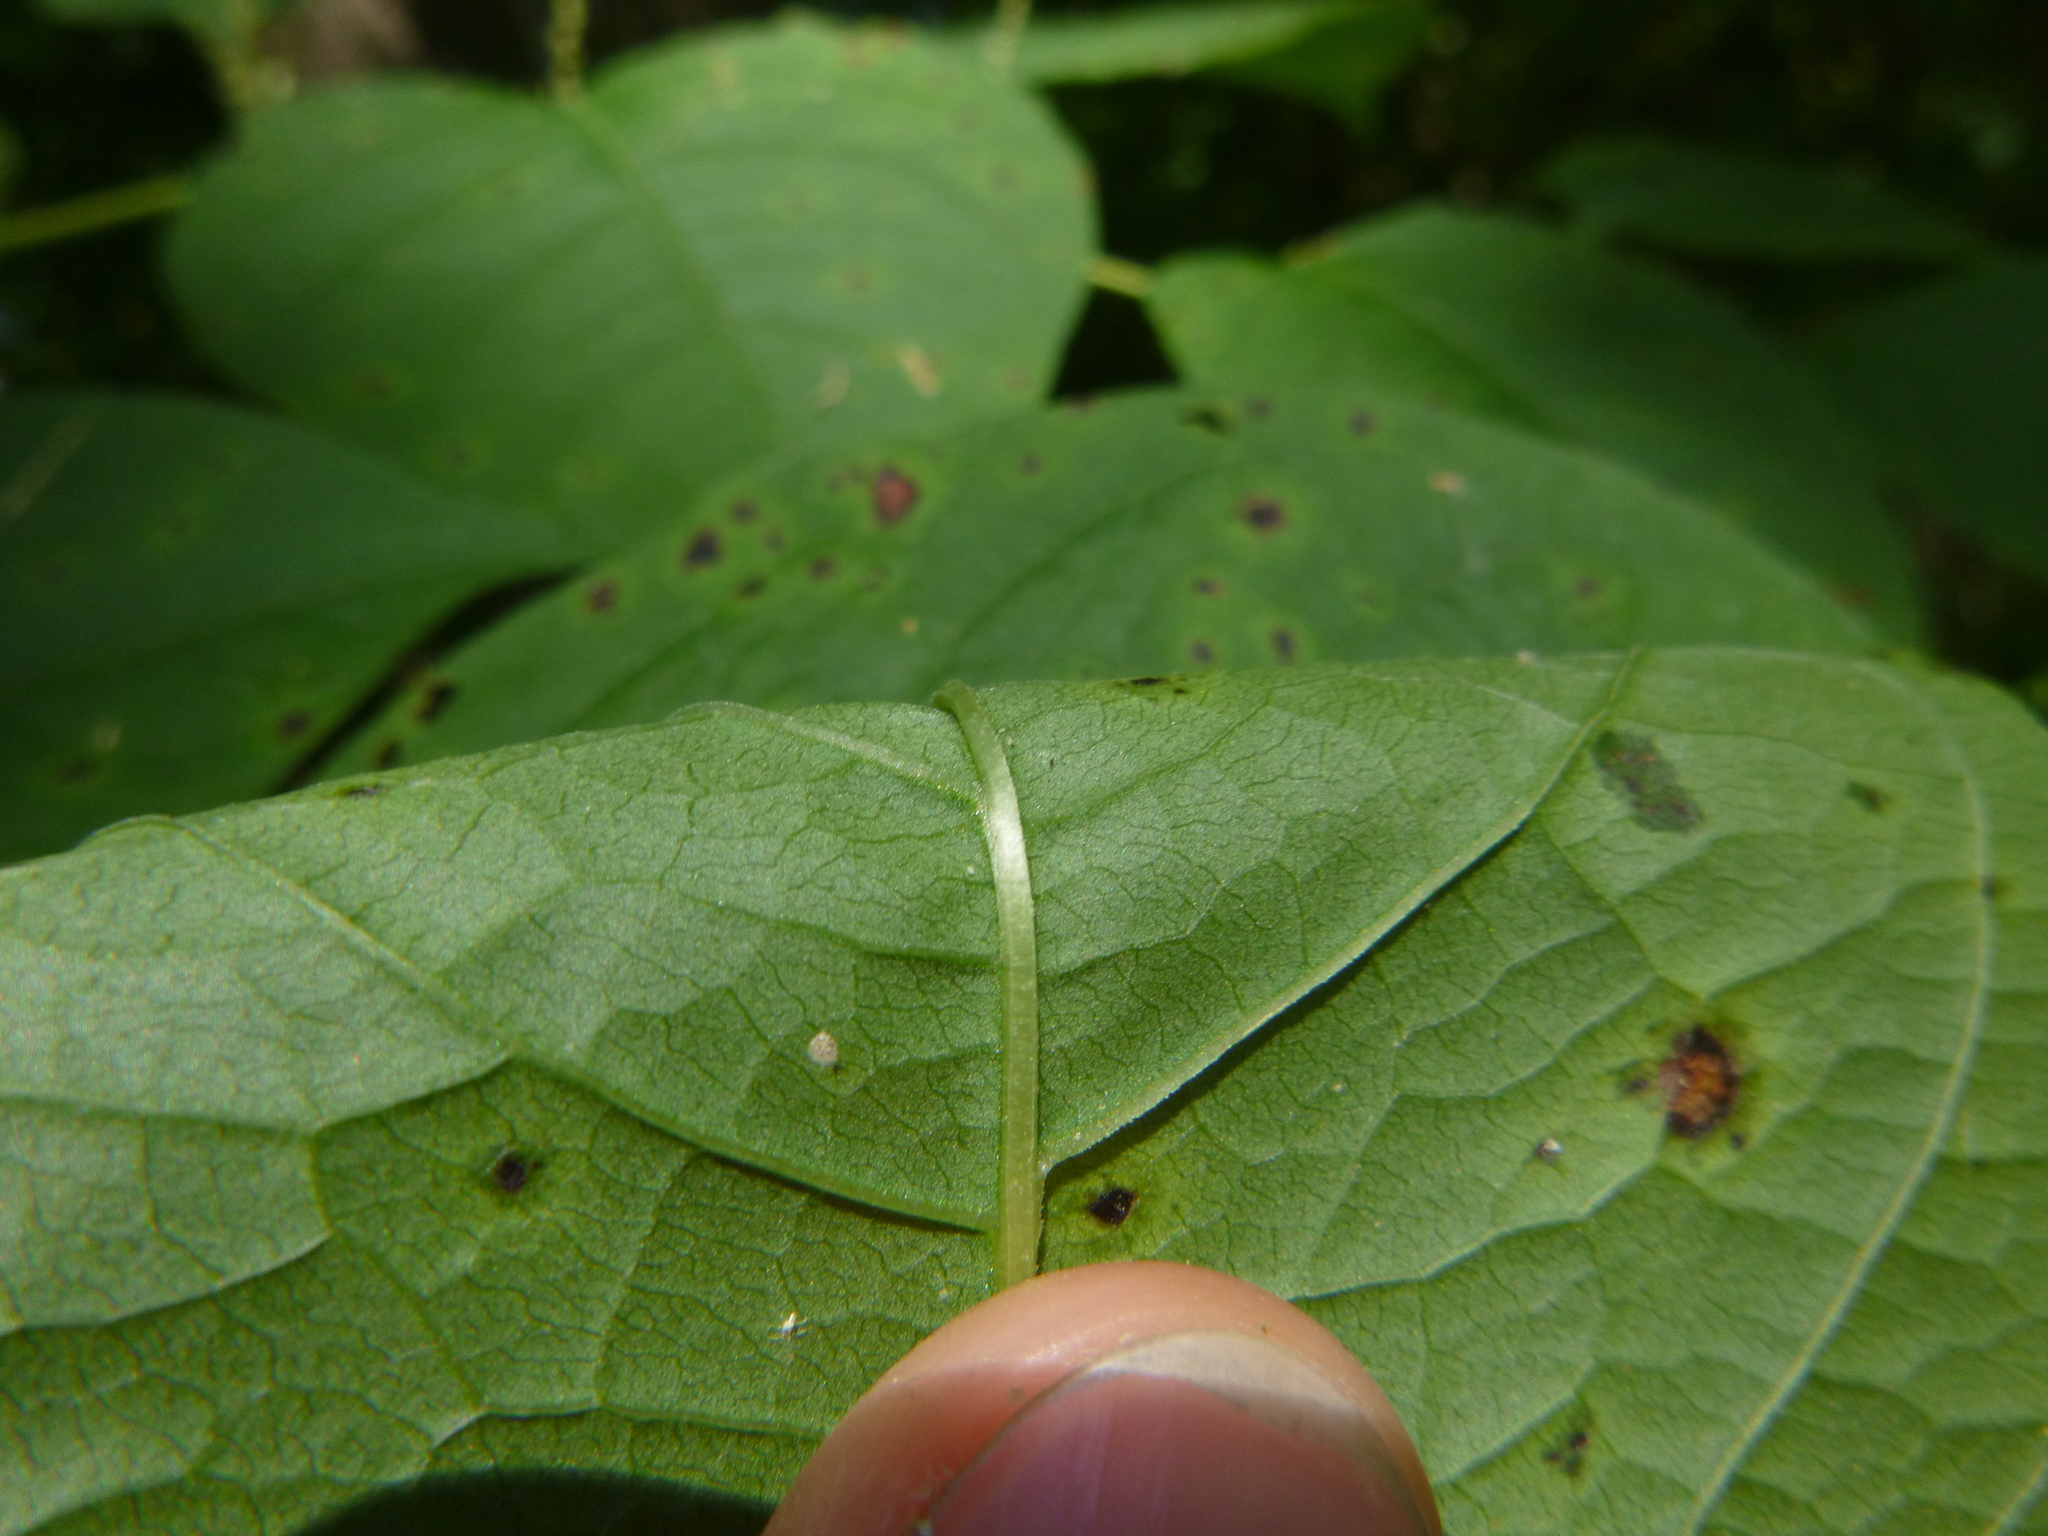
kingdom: Plantae
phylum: Tracheophyta
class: Magnoliopsida
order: Caryophyllales
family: Polygonaceae
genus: Reynoutria
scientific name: Reynoutria japonica
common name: Japanese knotweed
